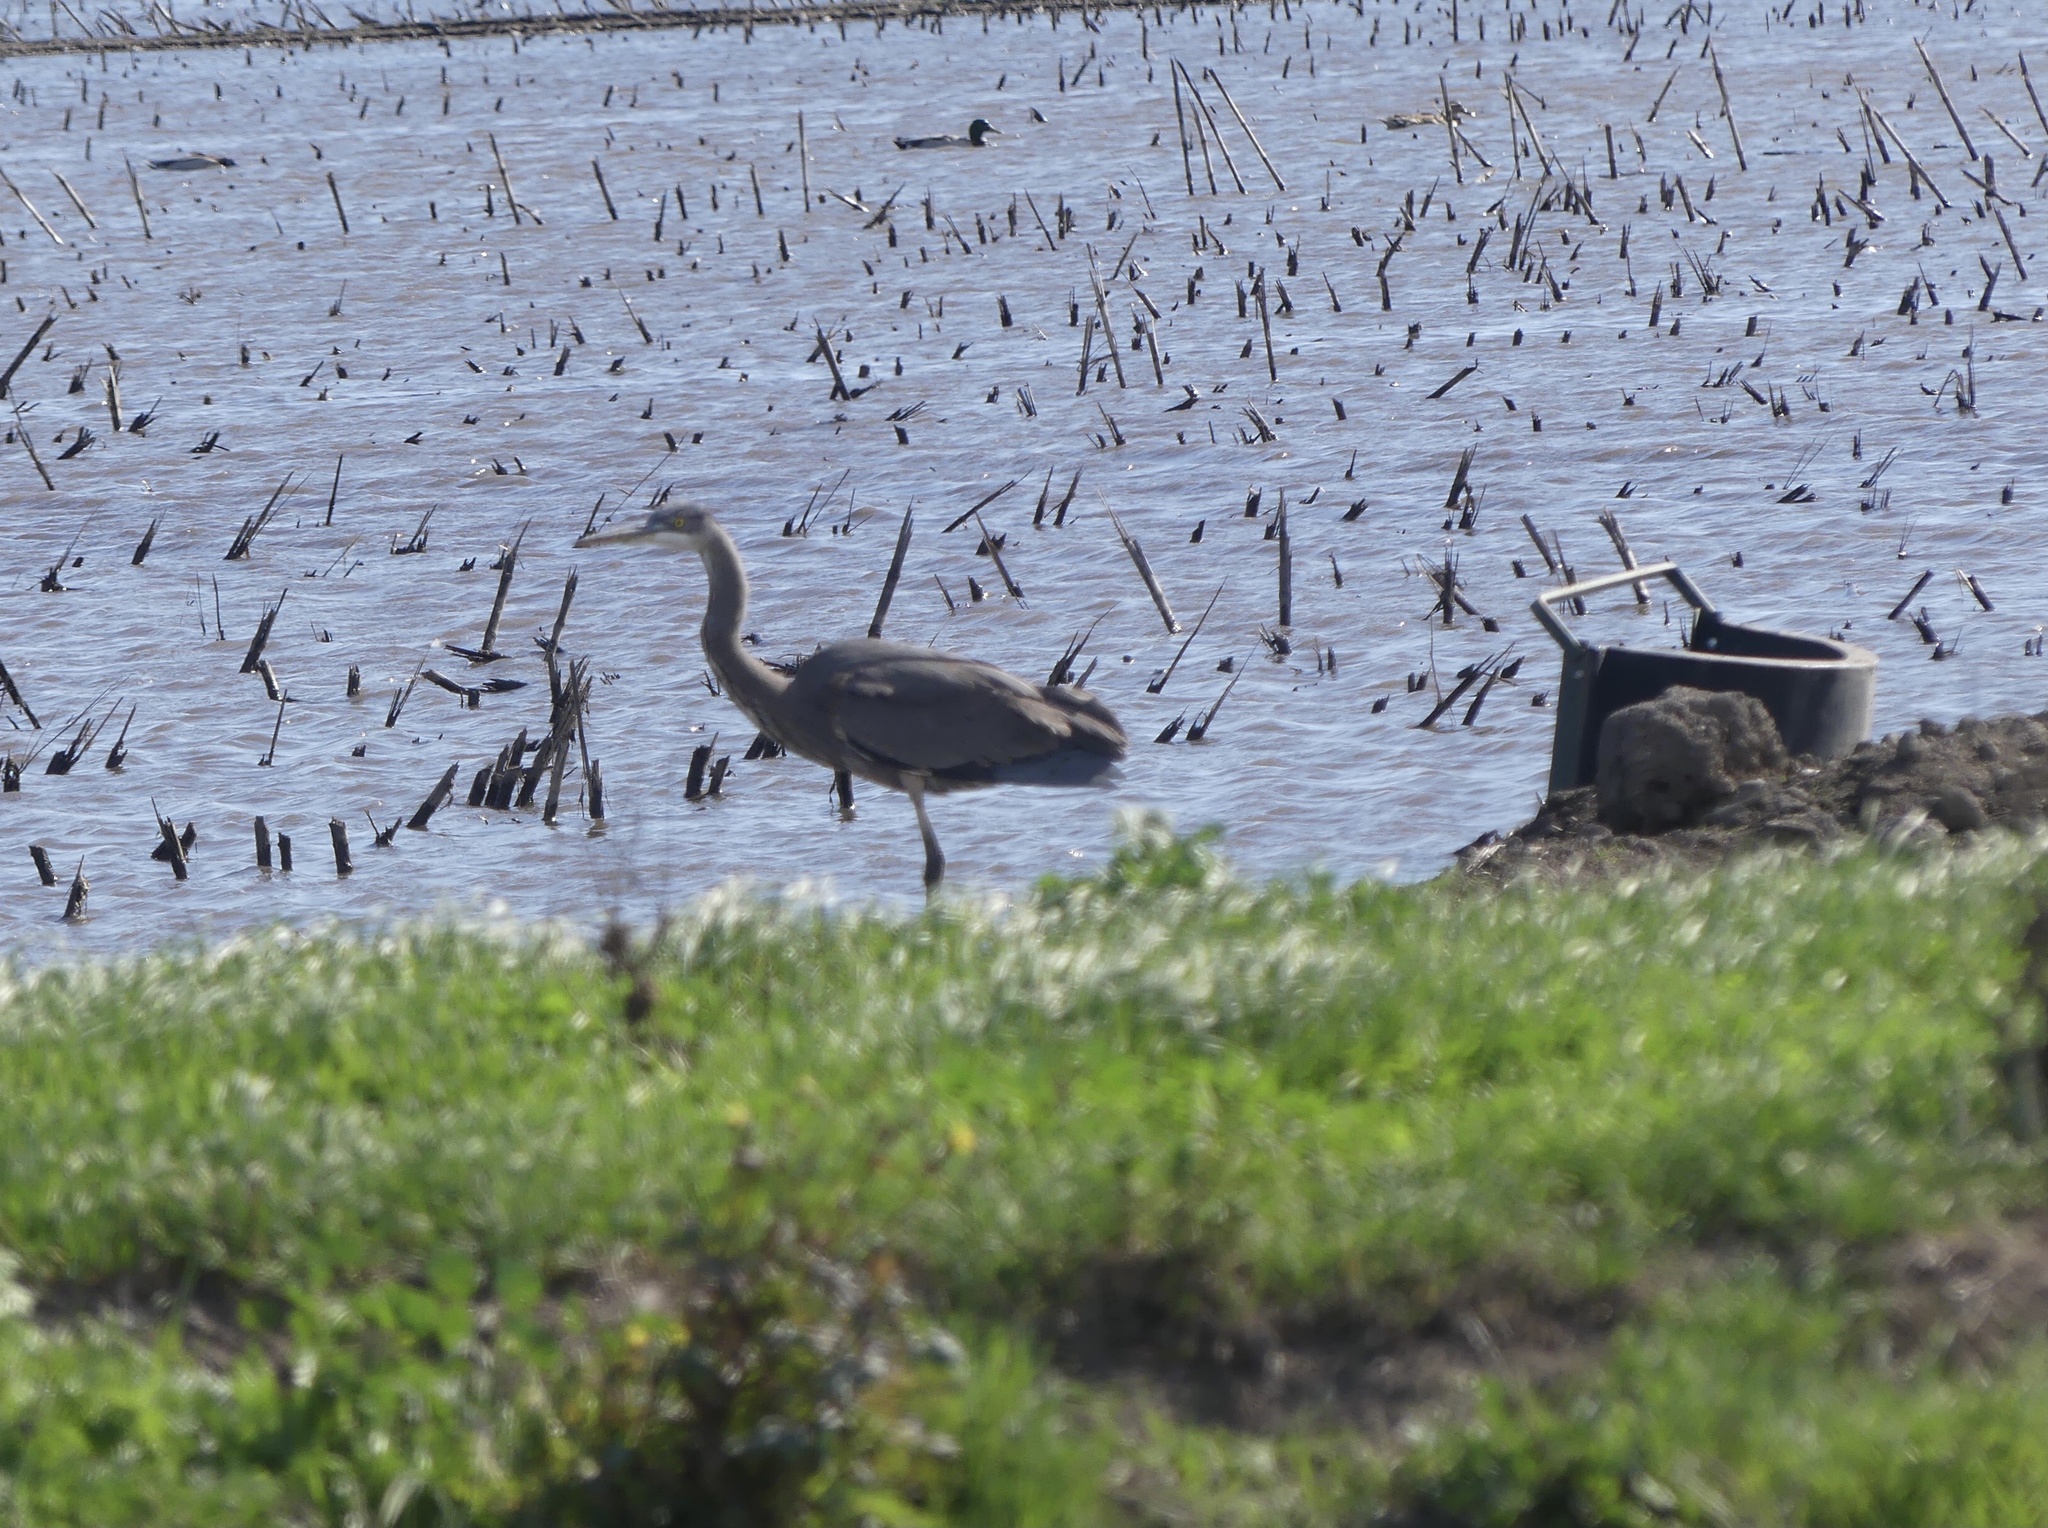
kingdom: Animalia
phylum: Chordata
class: Aves
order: Pelecaniformes
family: Ardeidae
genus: Ardea
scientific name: Ardea herodias
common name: Great blue heron
